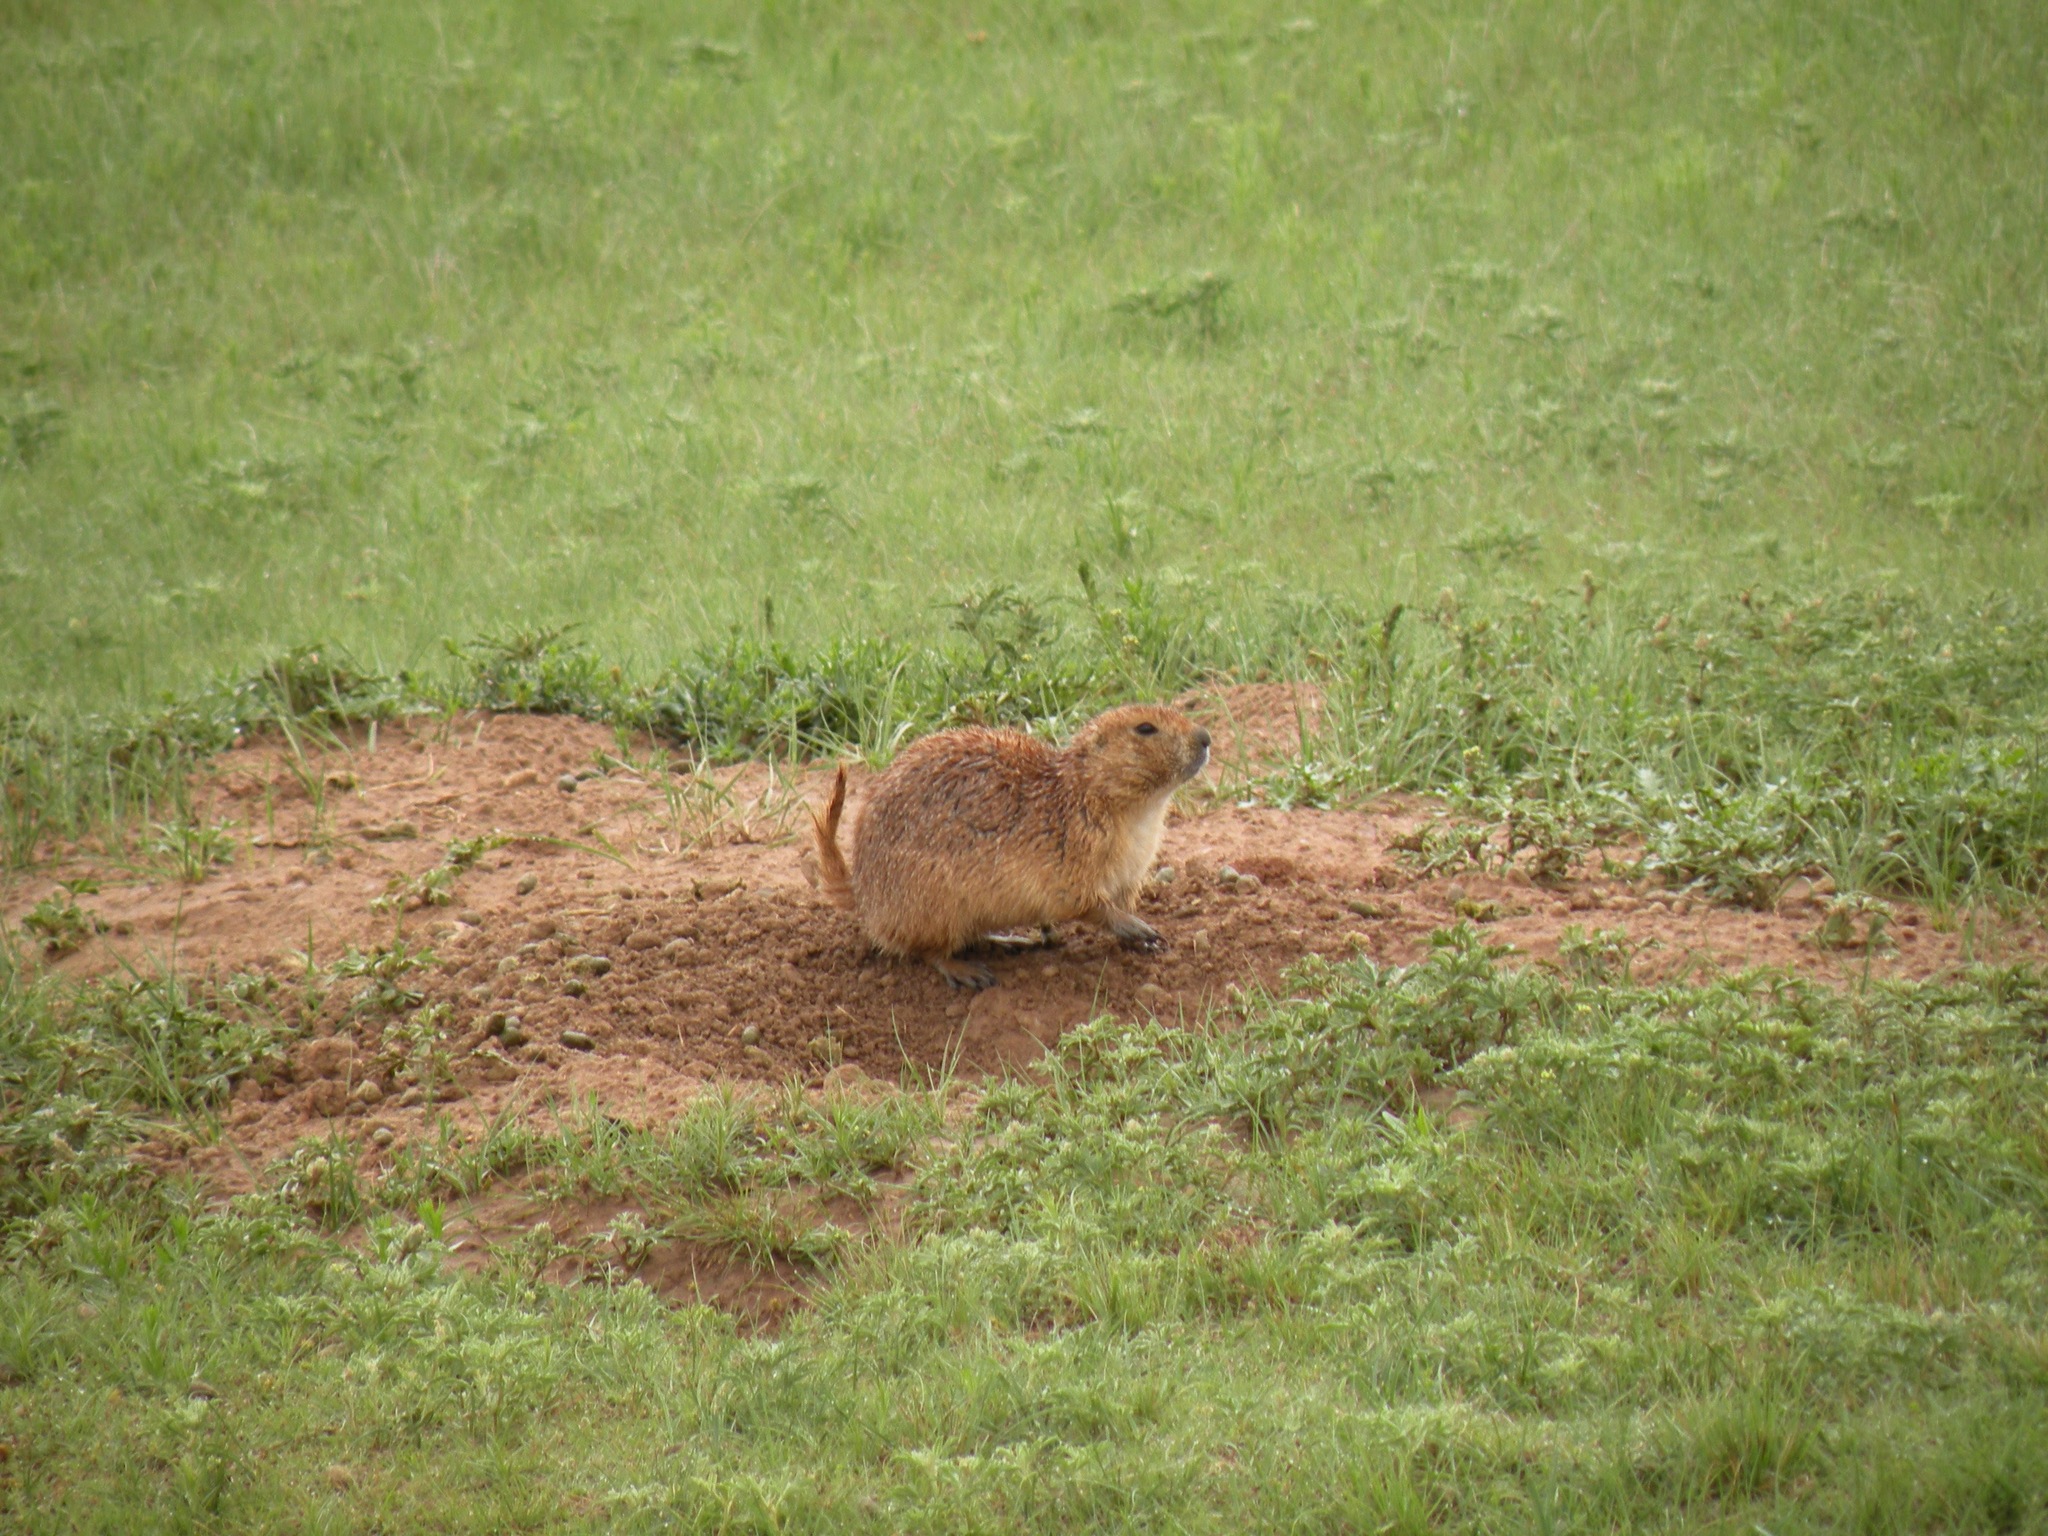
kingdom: Animalia
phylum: Chordata
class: Mammalia
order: Rodentia
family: Sciuridae
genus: Cynomys
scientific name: Cynomys ludovicianus
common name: Black-tailed prairie dog
